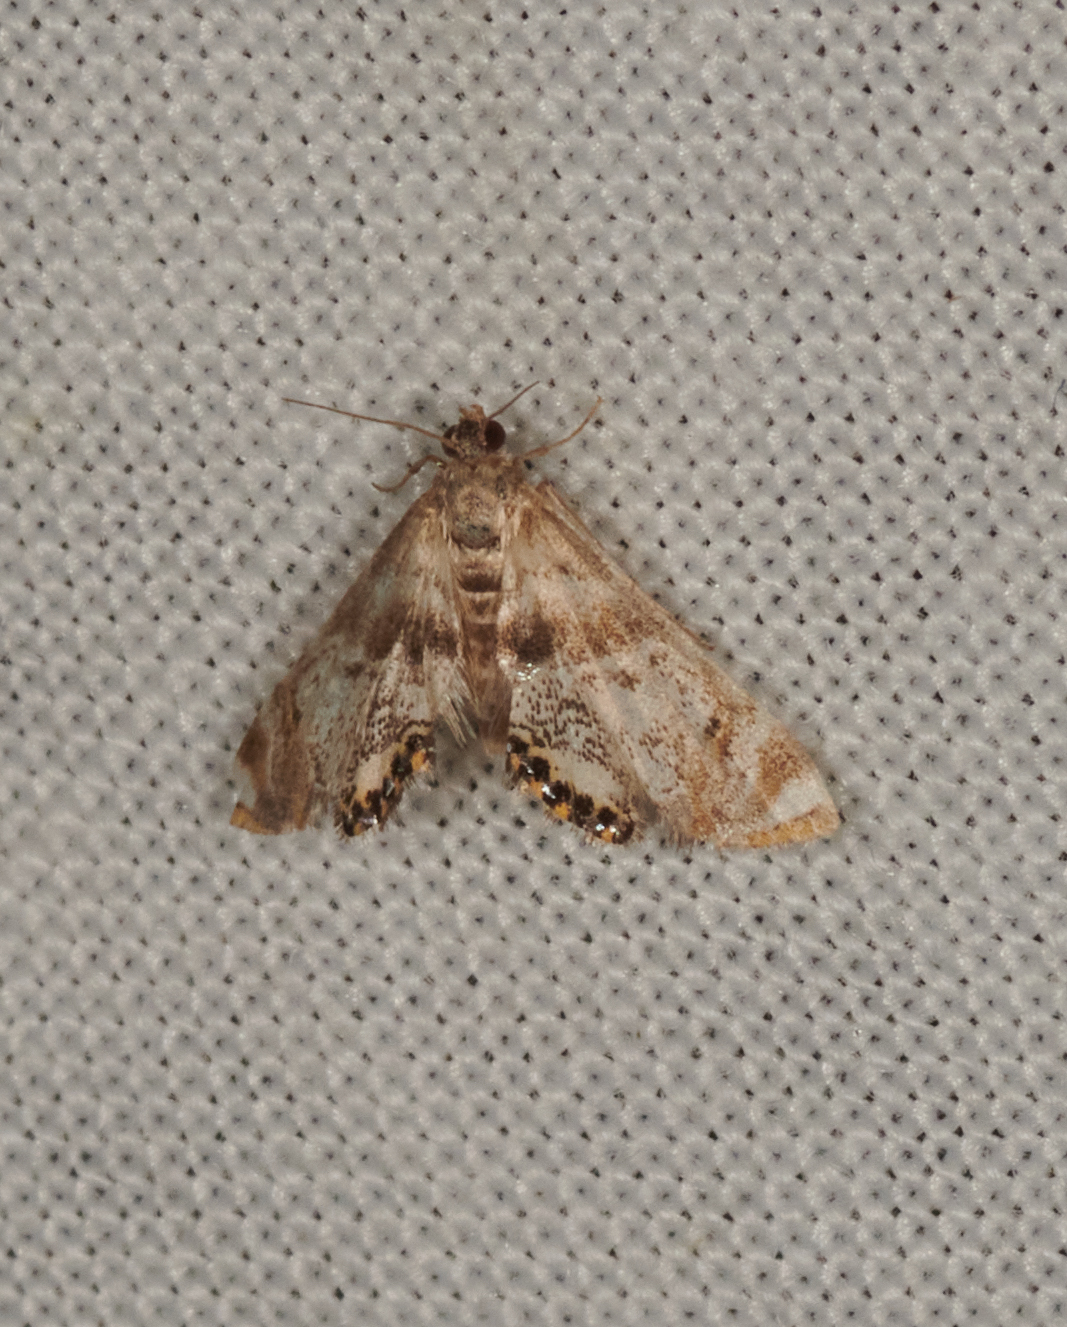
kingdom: Animalia
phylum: Arthropoda
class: Insecta
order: Lepidoptera
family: Crambidae
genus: Petrophila
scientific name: Petrophila fulicalis
